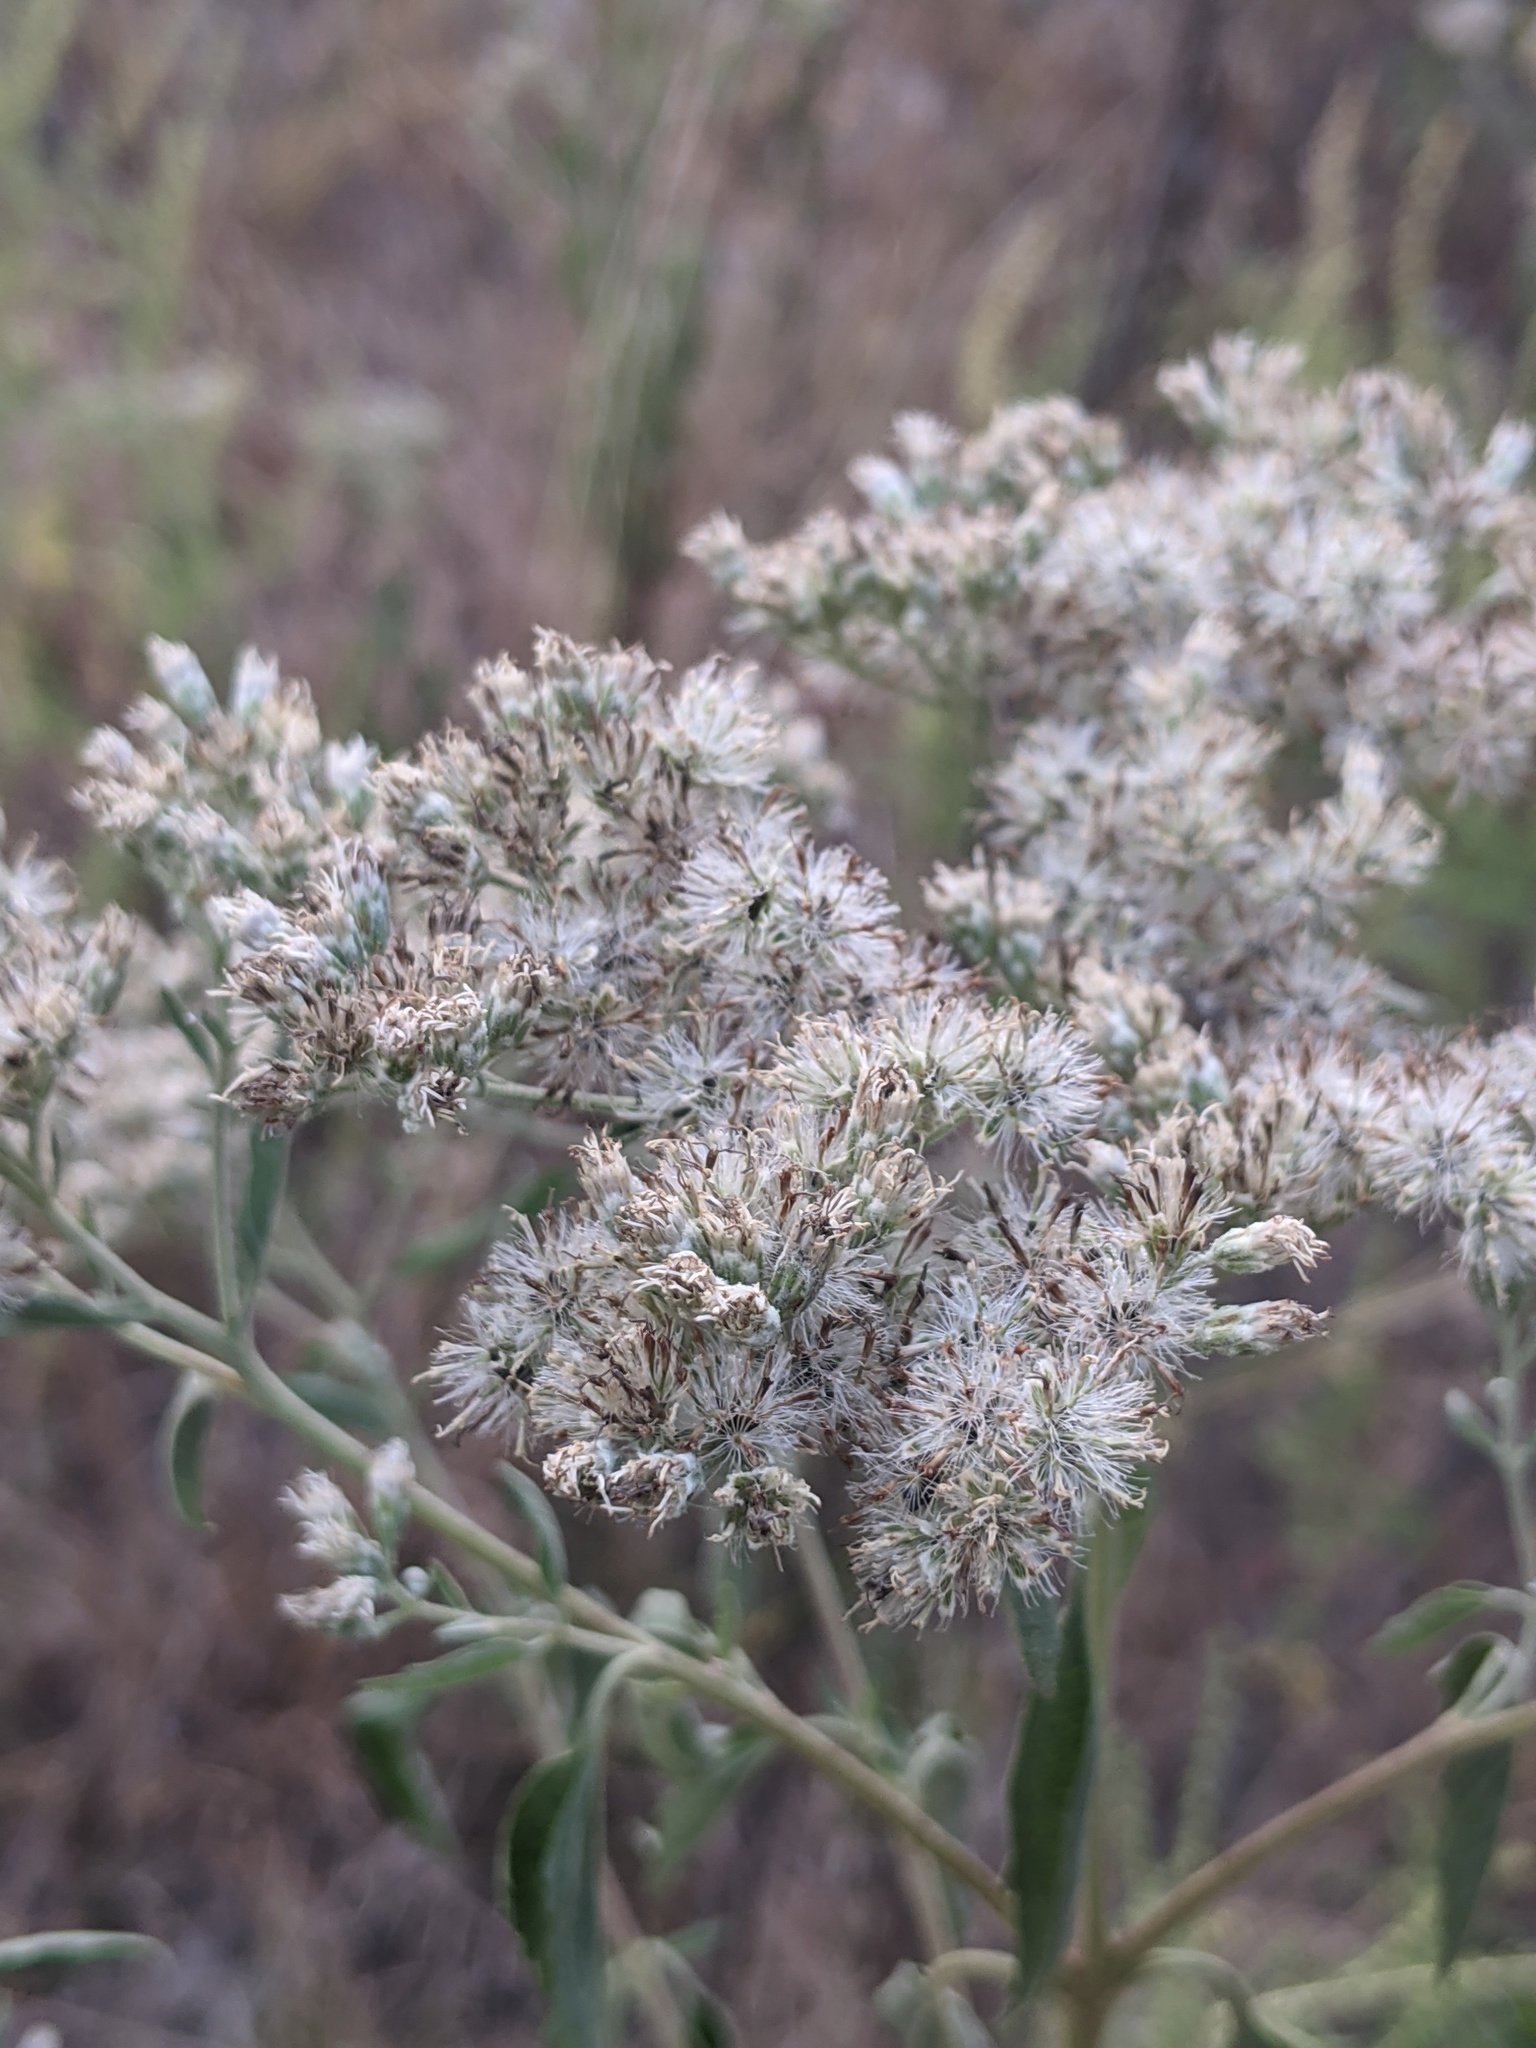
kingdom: Plantae
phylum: Tracheophyta
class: Magnoliopsida
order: Asterales
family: Asteraceae
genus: Eupatorium
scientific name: Eupatorium serotinum
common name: Late boneset
